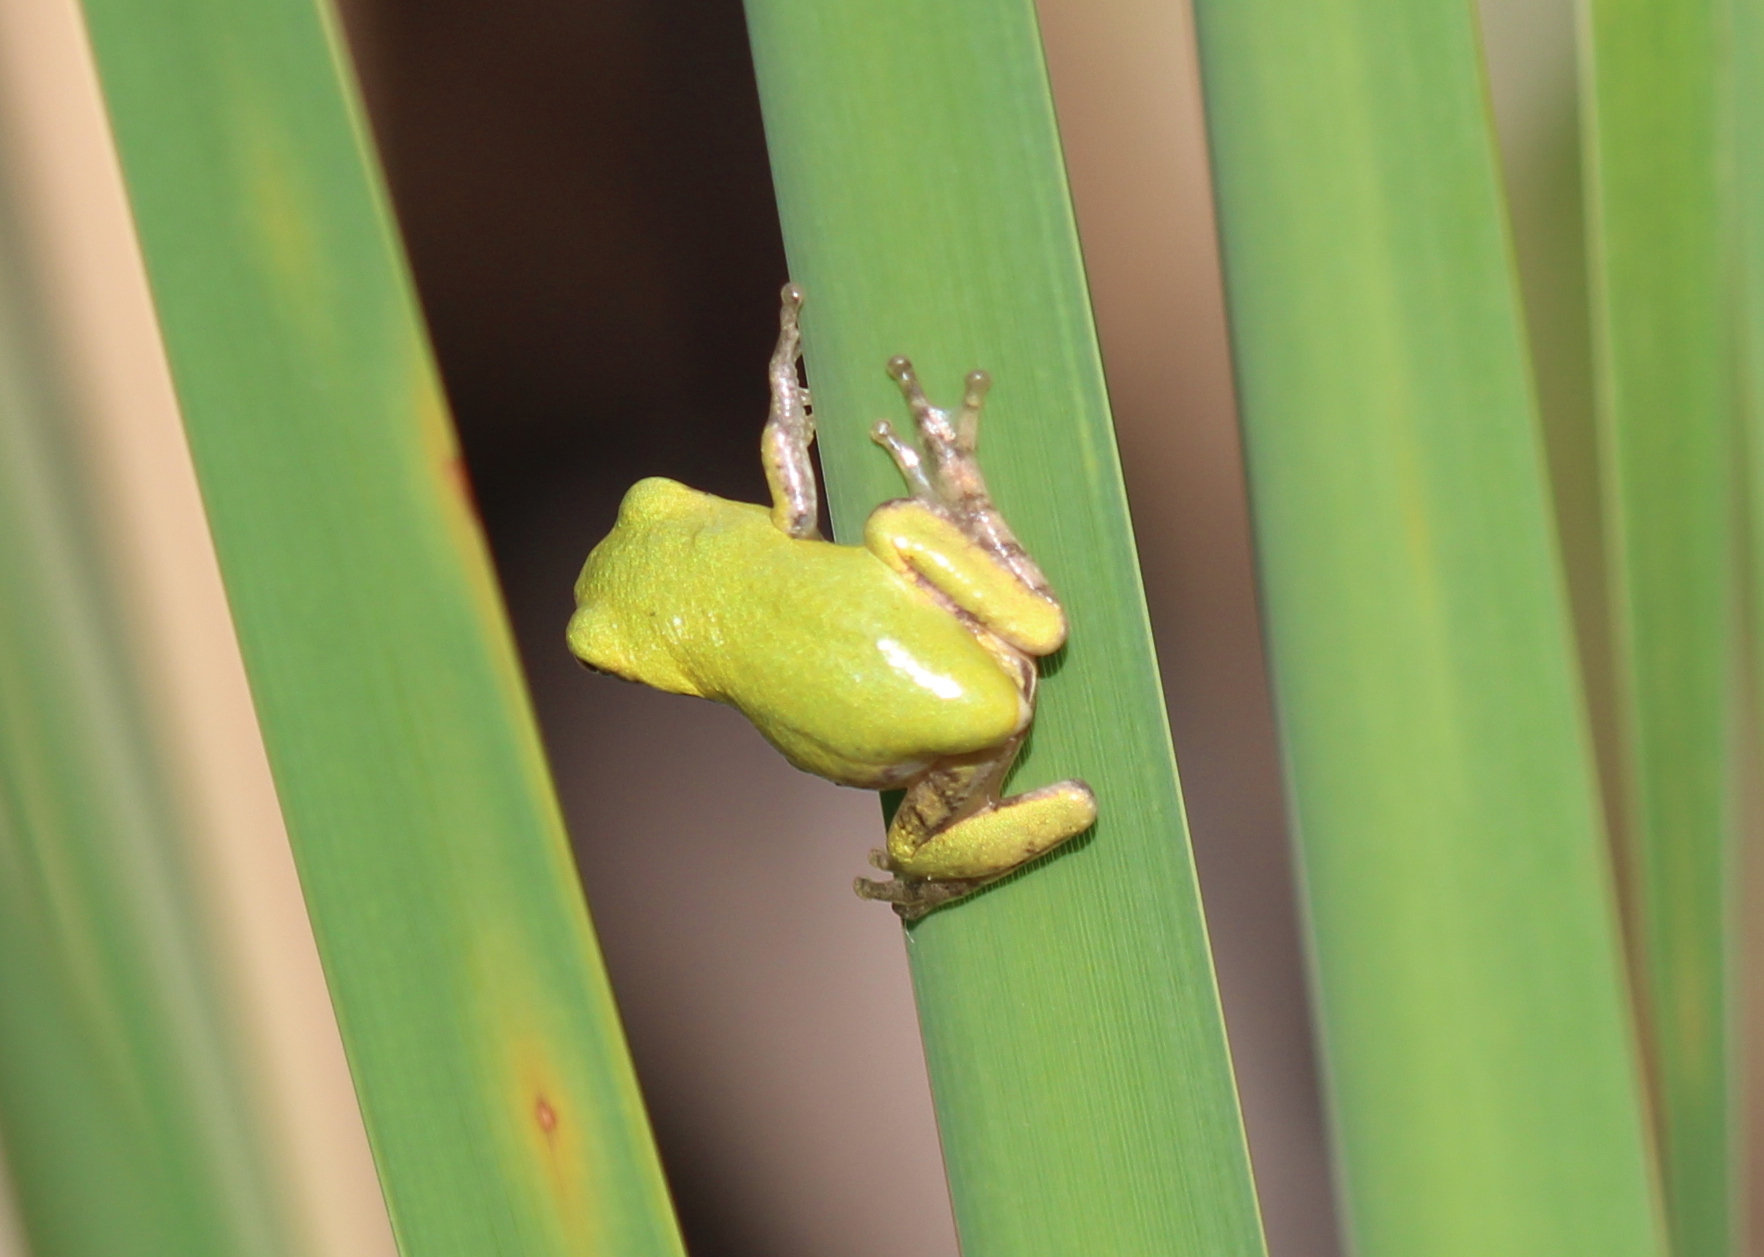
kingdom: Animalia
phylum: Chordata
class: Amphibia
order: Anura
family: Hylidae
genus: Dryophytes
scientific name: Dryophytes versicolor
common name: Gray treefrog
